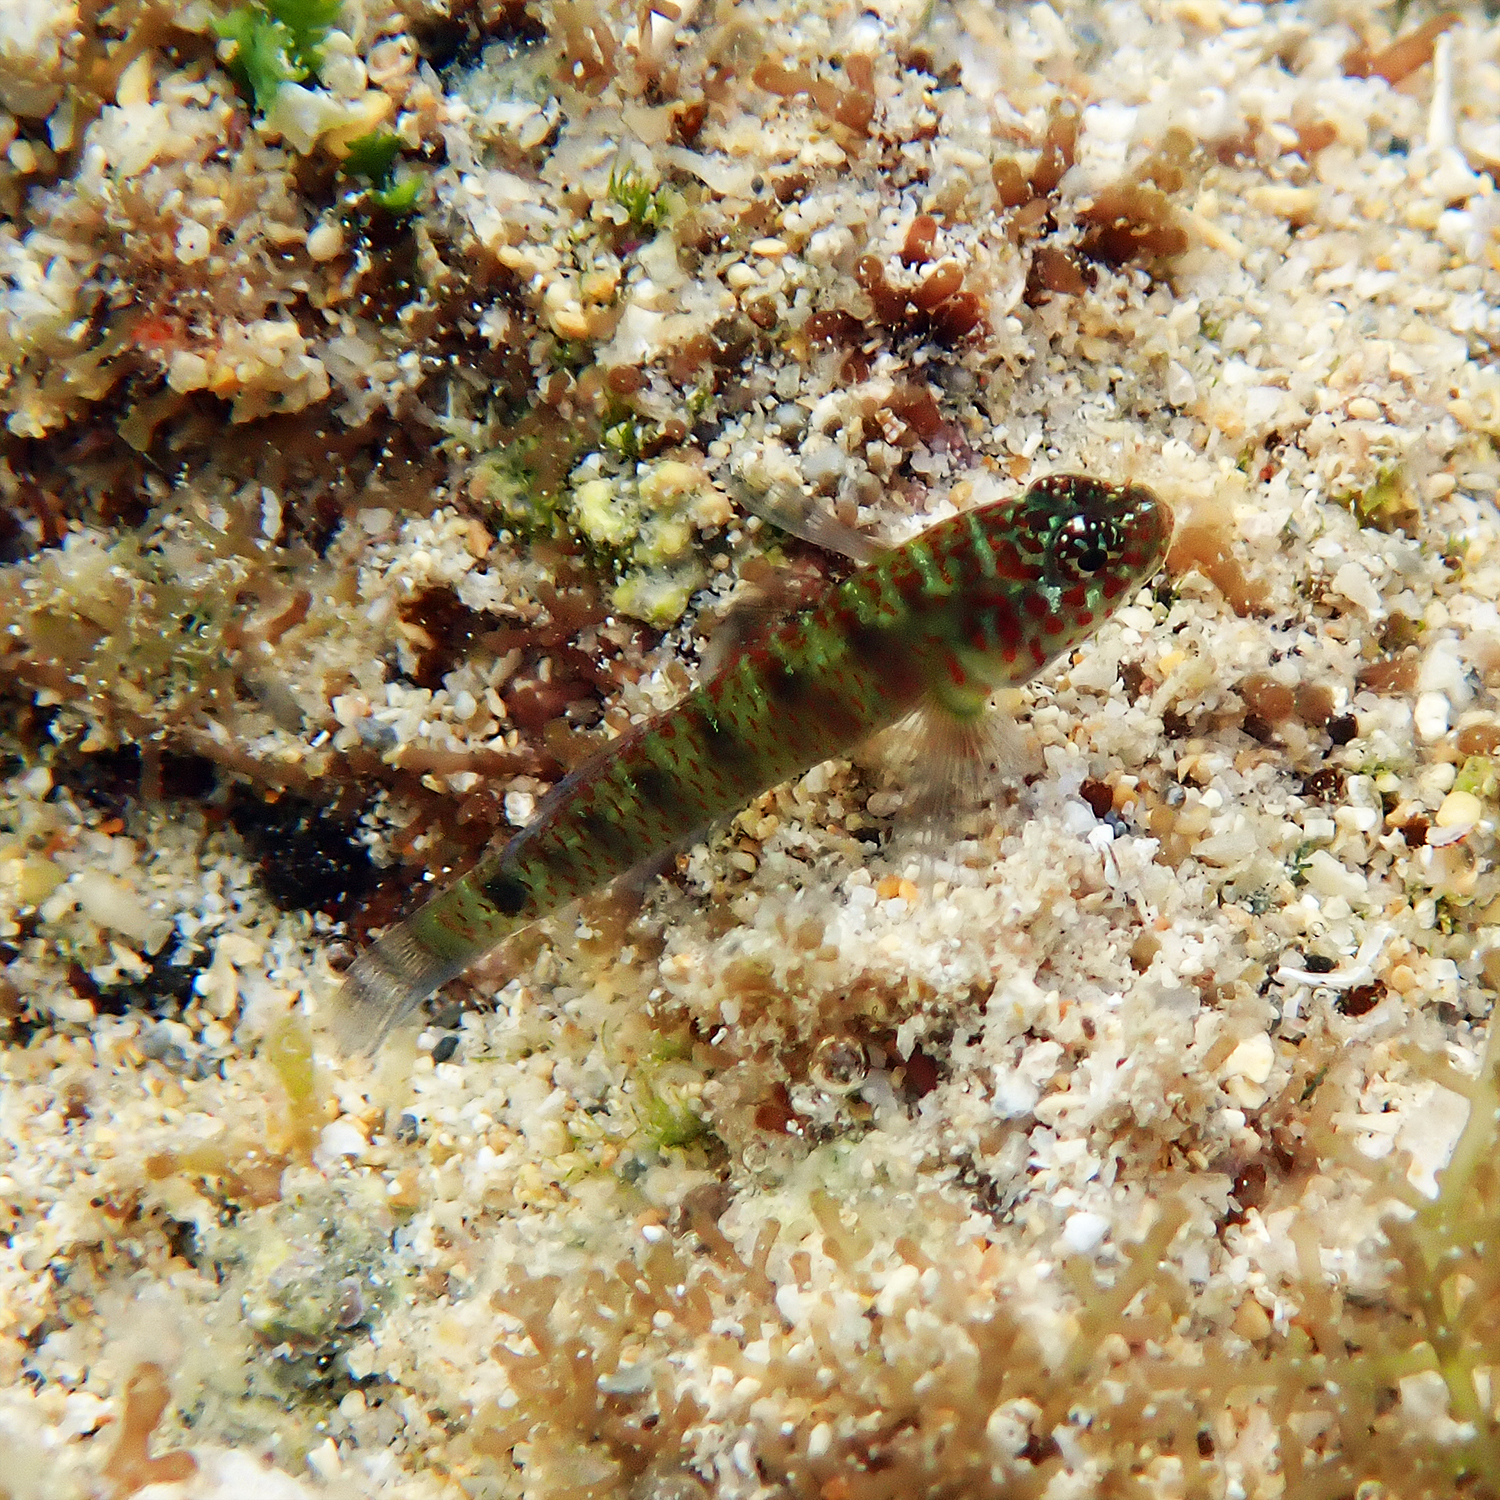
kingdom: Animalia
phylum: Chordata
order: Perciformes
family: Gobiidae
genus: Eviota
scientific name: Eviota hoesei
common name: Doug's eviota
